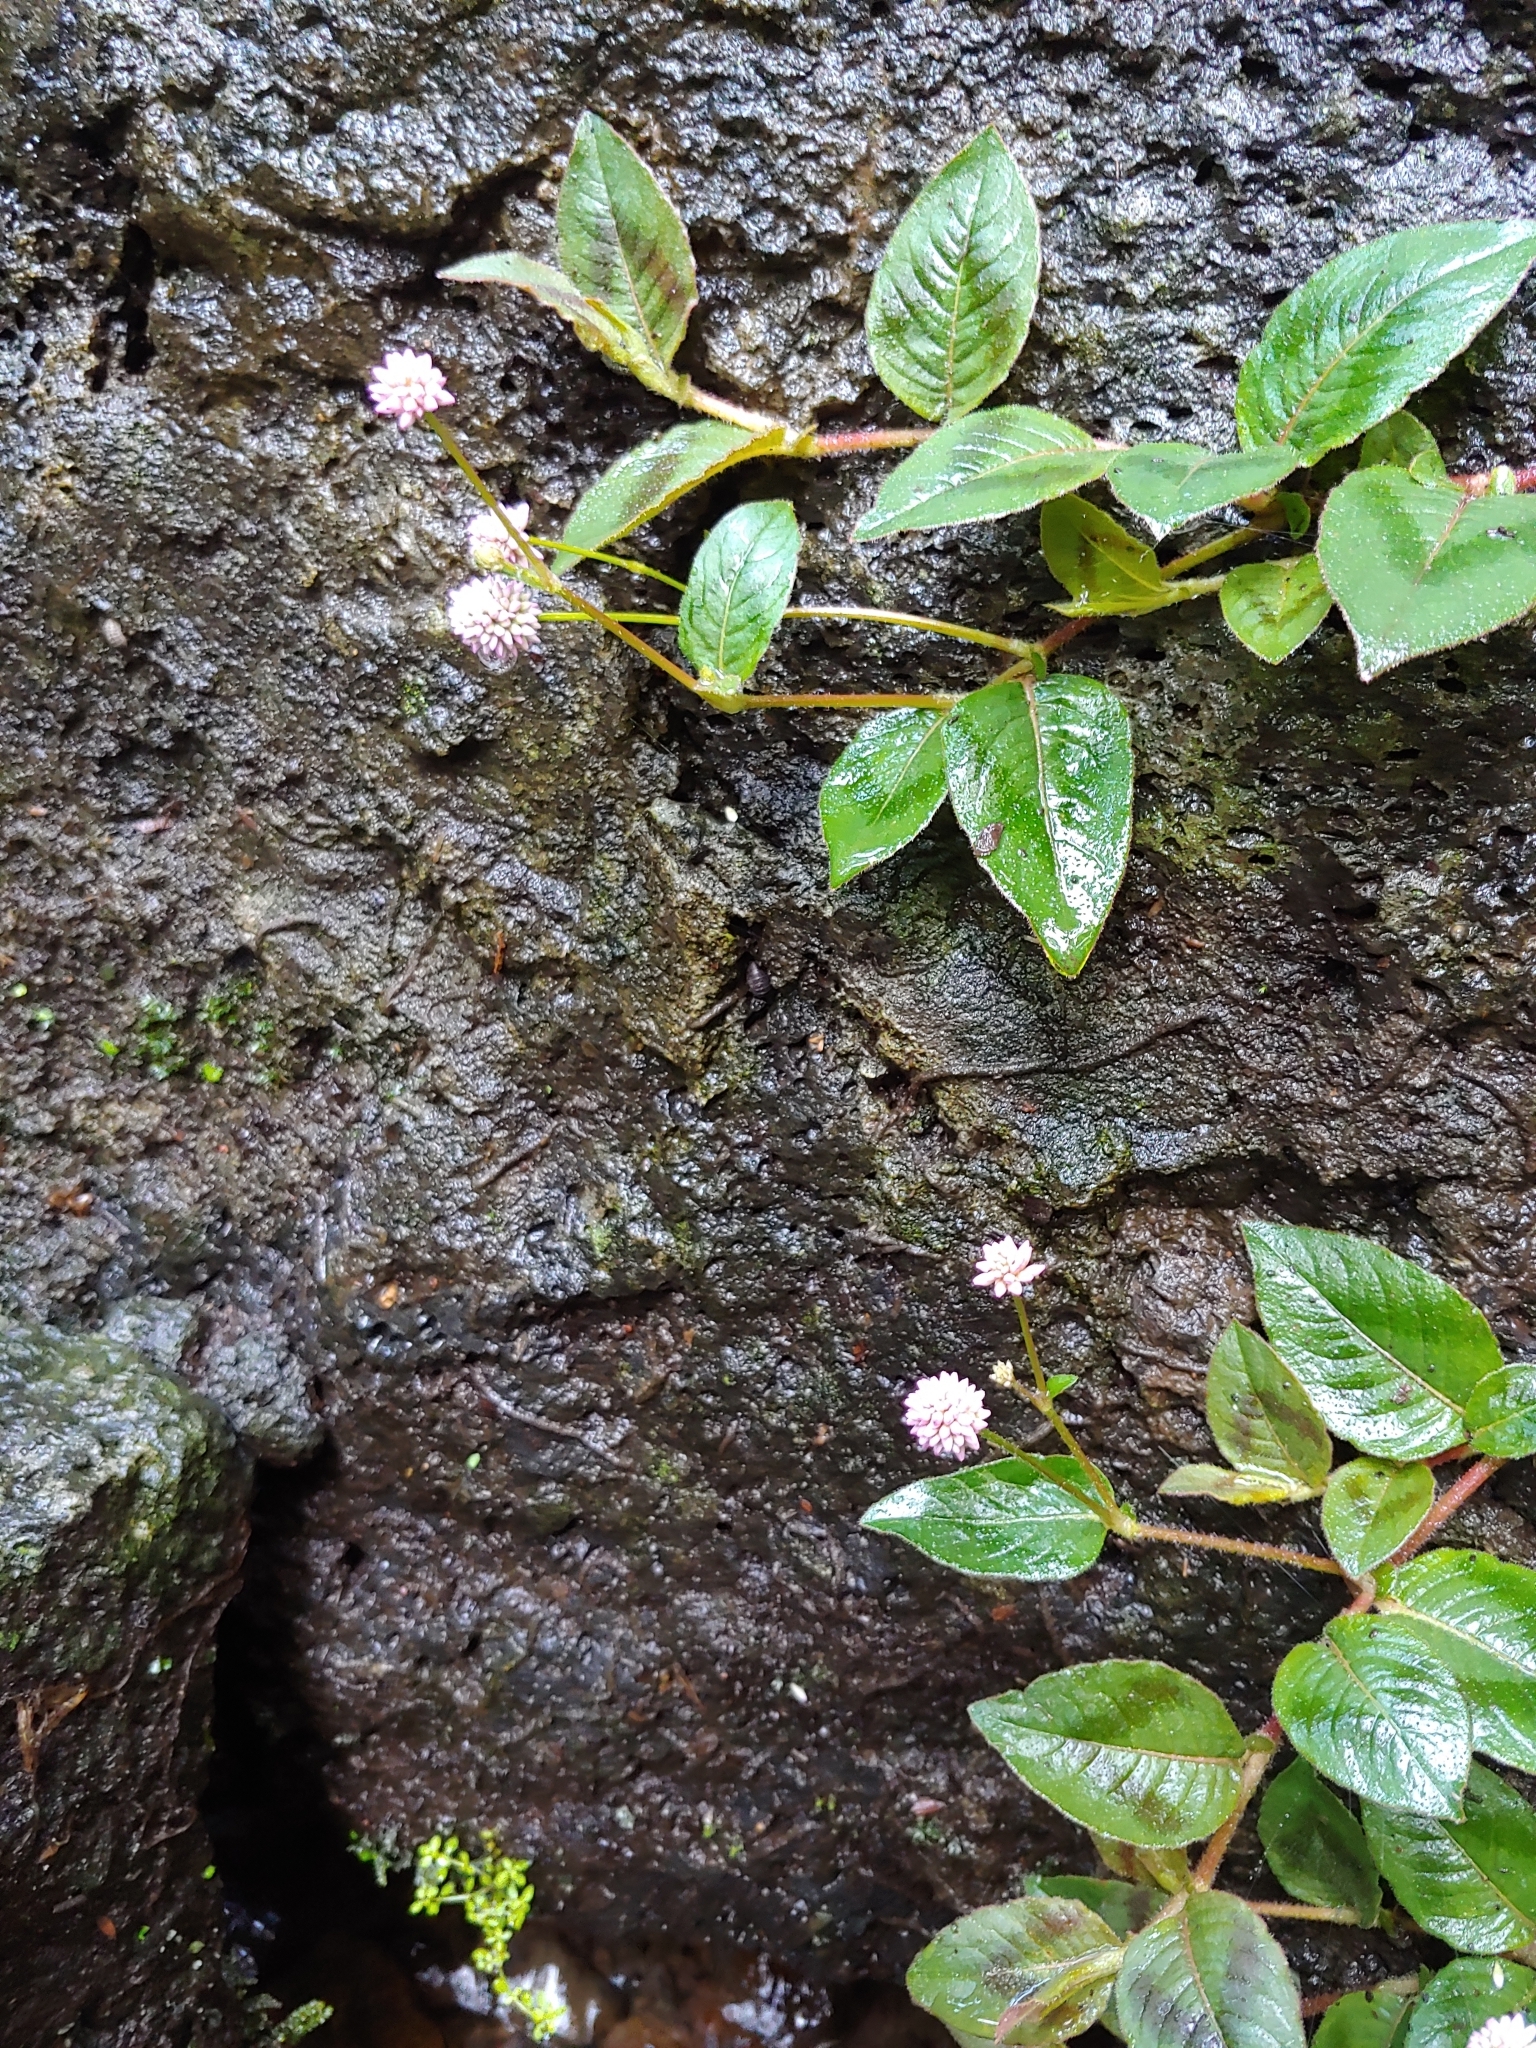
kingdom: Plantae
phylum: Tracheophyta
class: Magnoliopsida
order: Caryophyllales
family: Polygonaceae
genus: Persicaria
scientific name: Persicaria capitata
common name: Pinkhead smartweed
